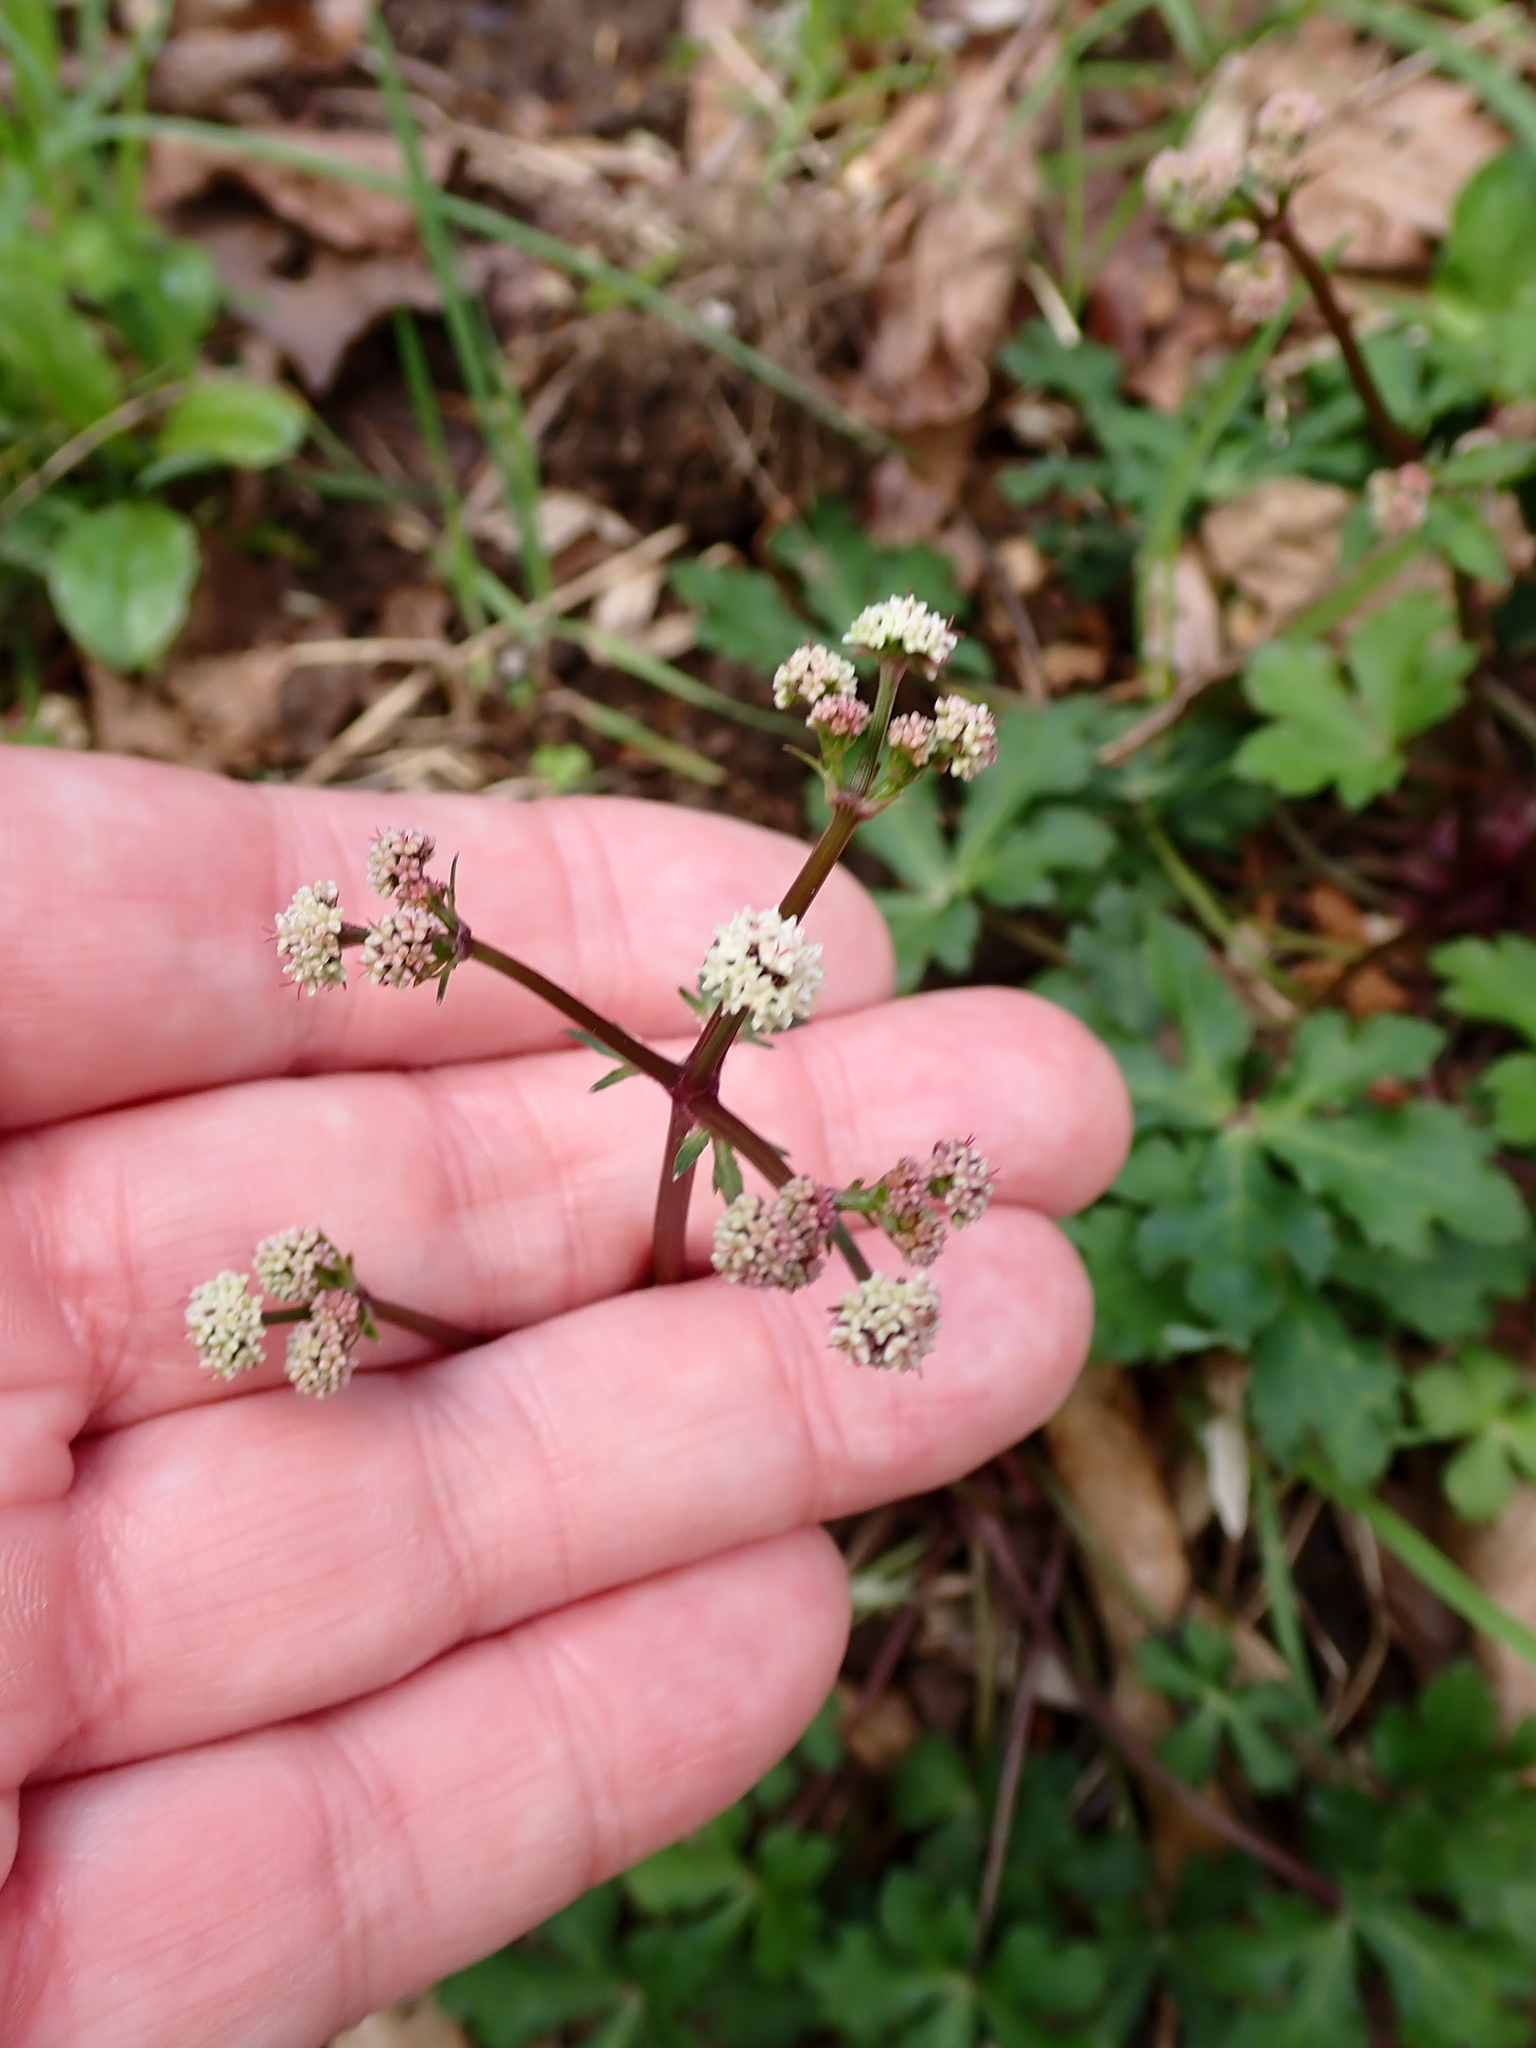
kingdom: Plantae
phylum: Tracheophyta
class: Magnoliopsida
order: Apiales
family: Apiaceae
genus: Sanicula
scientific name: Sanicula europaea
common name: Sanicle
